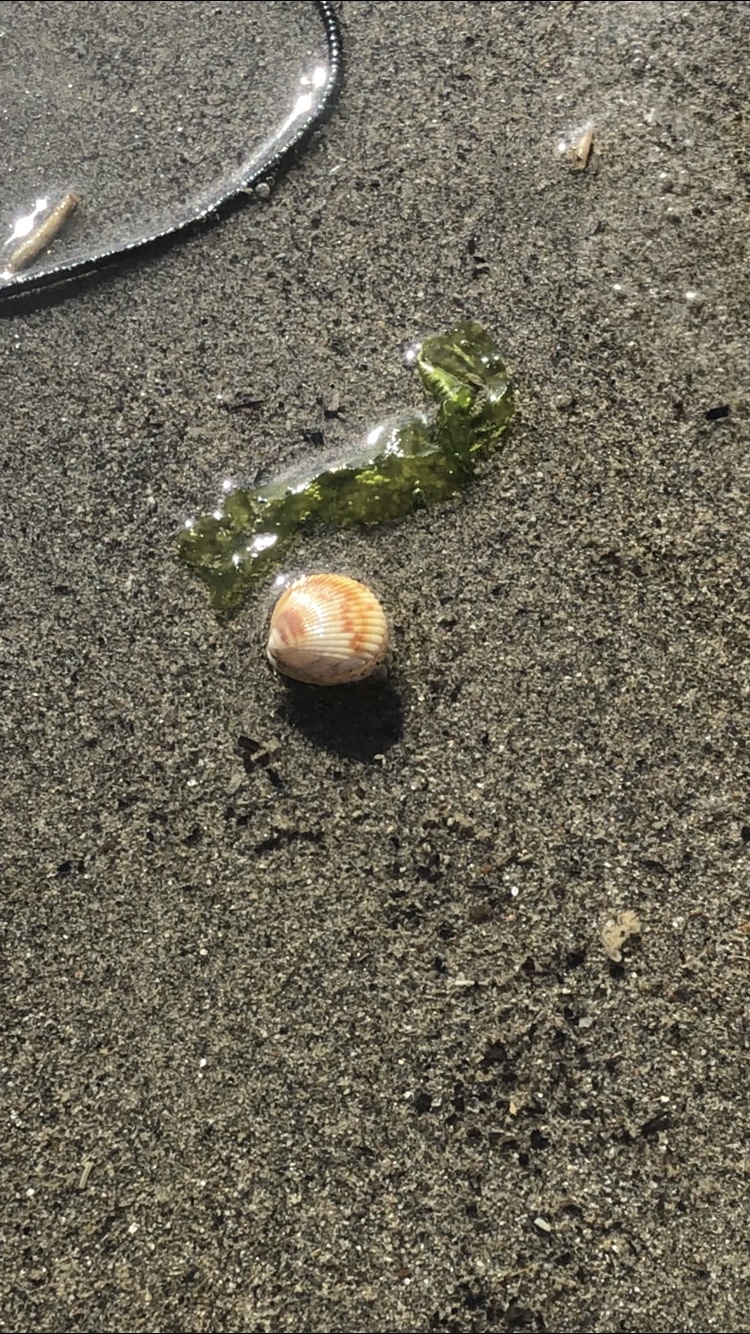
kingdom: Animalia
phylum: Mollusca
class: Bivalvia
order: Cardiida
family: Cardiidae
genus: Clinocardium
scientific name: Clinocardium nuttallii
